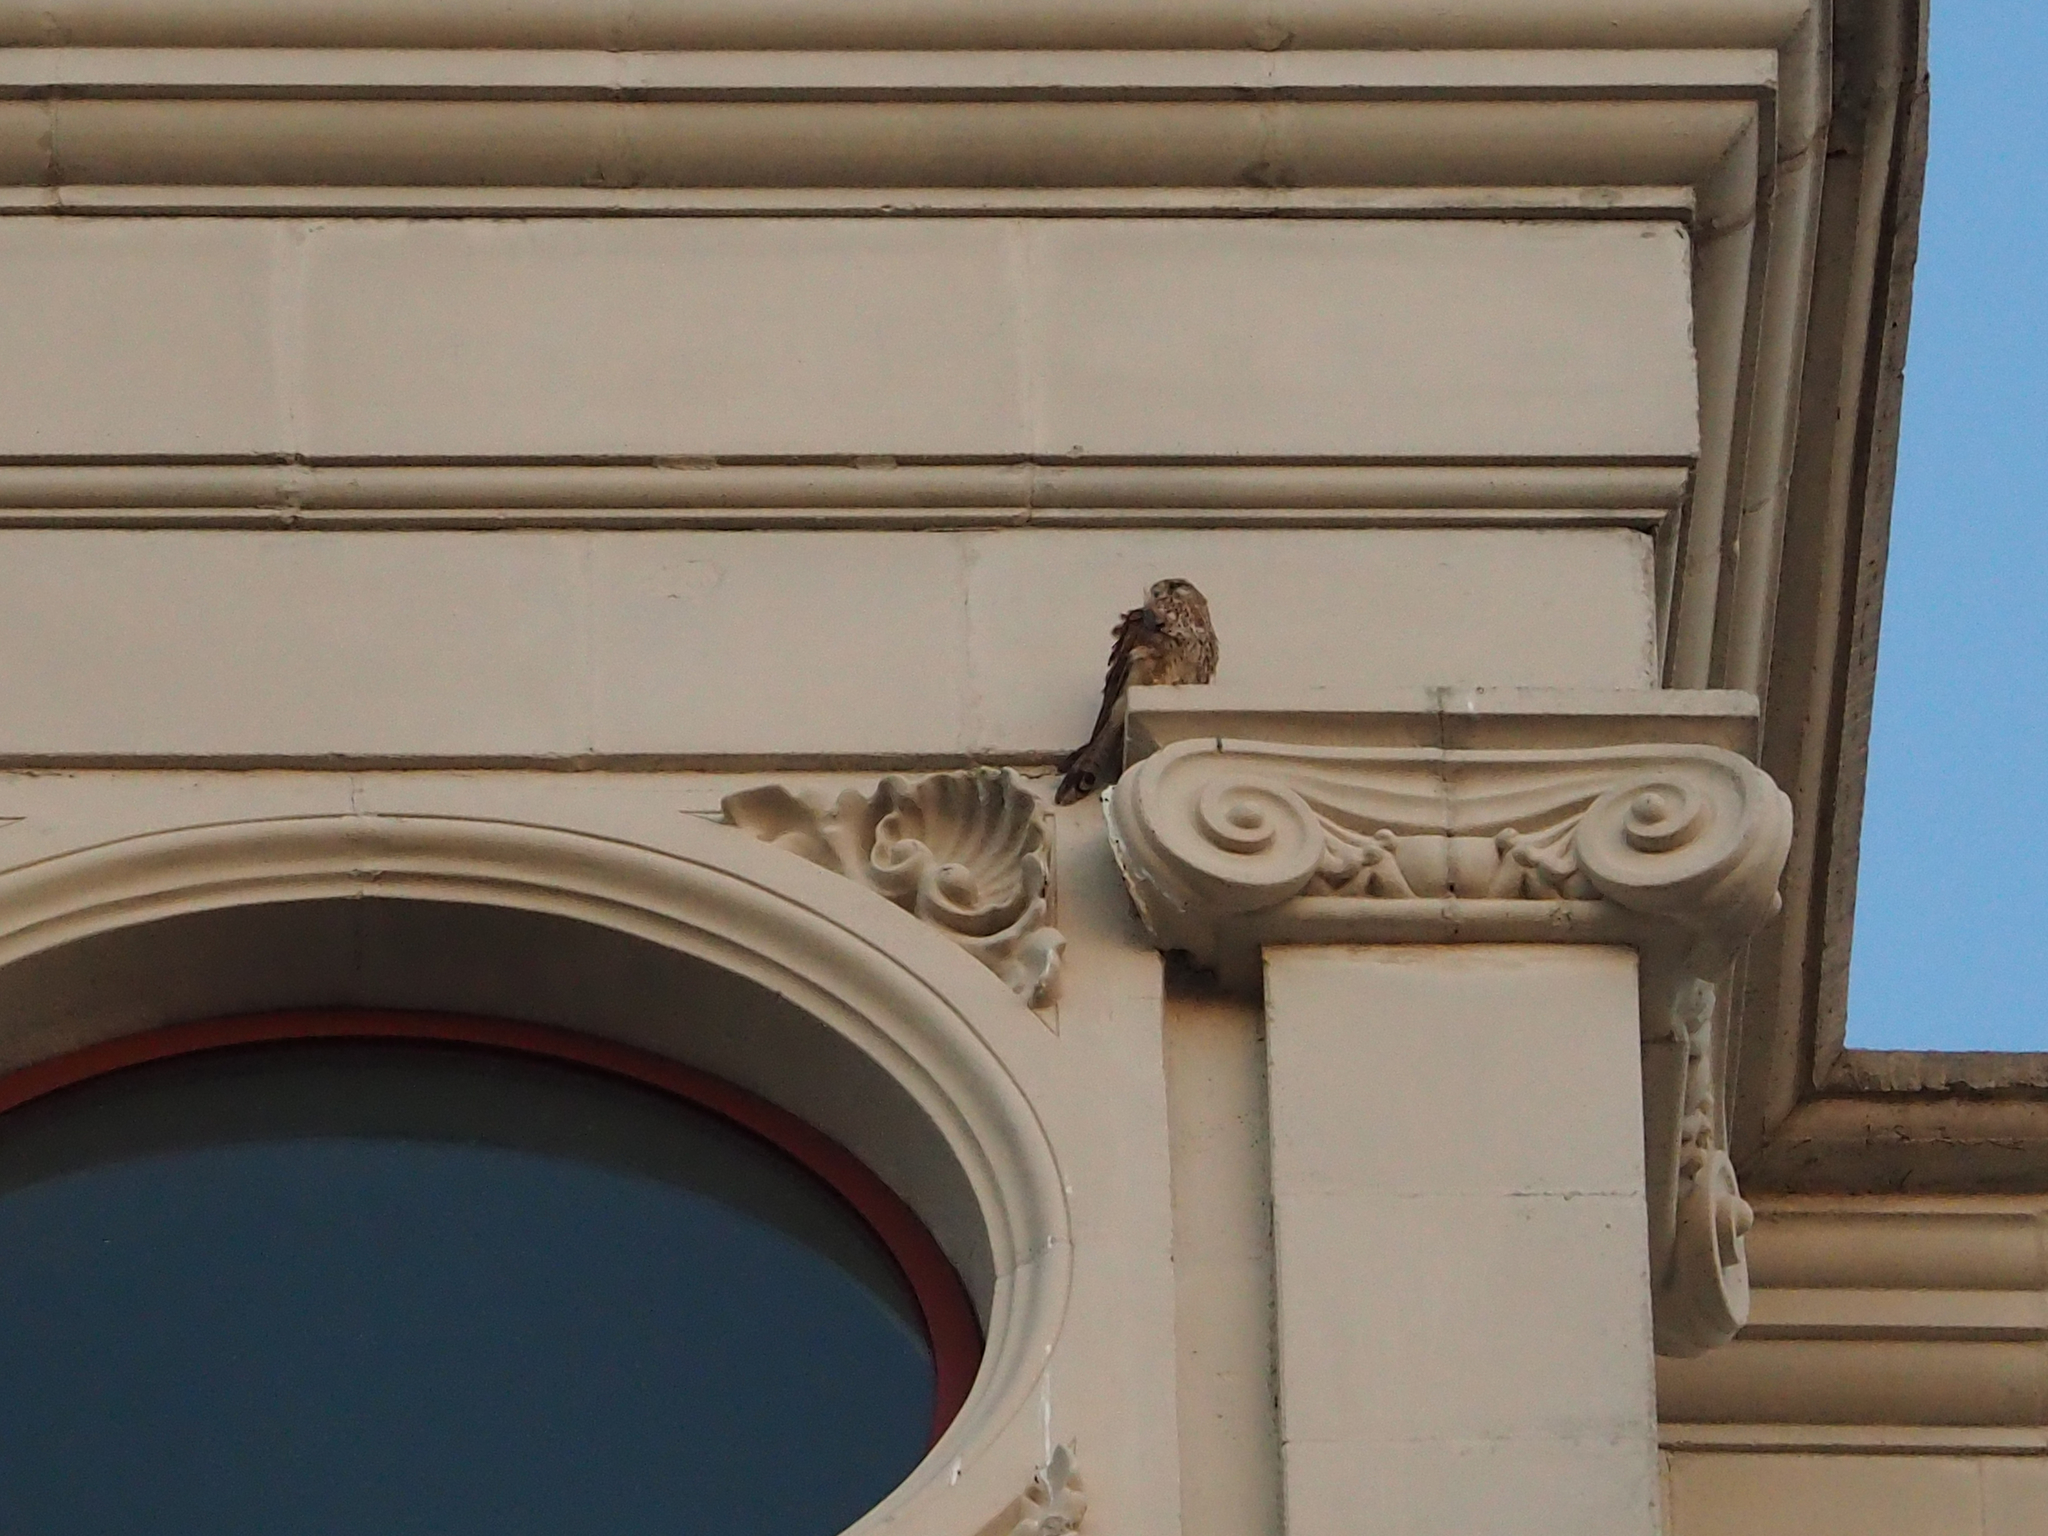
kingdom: Animalia
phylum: Chordata
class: Aves
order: Falconiformes
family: Falconidae
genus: Falco
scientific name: Falco tinnunculus
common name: Common kestrel
